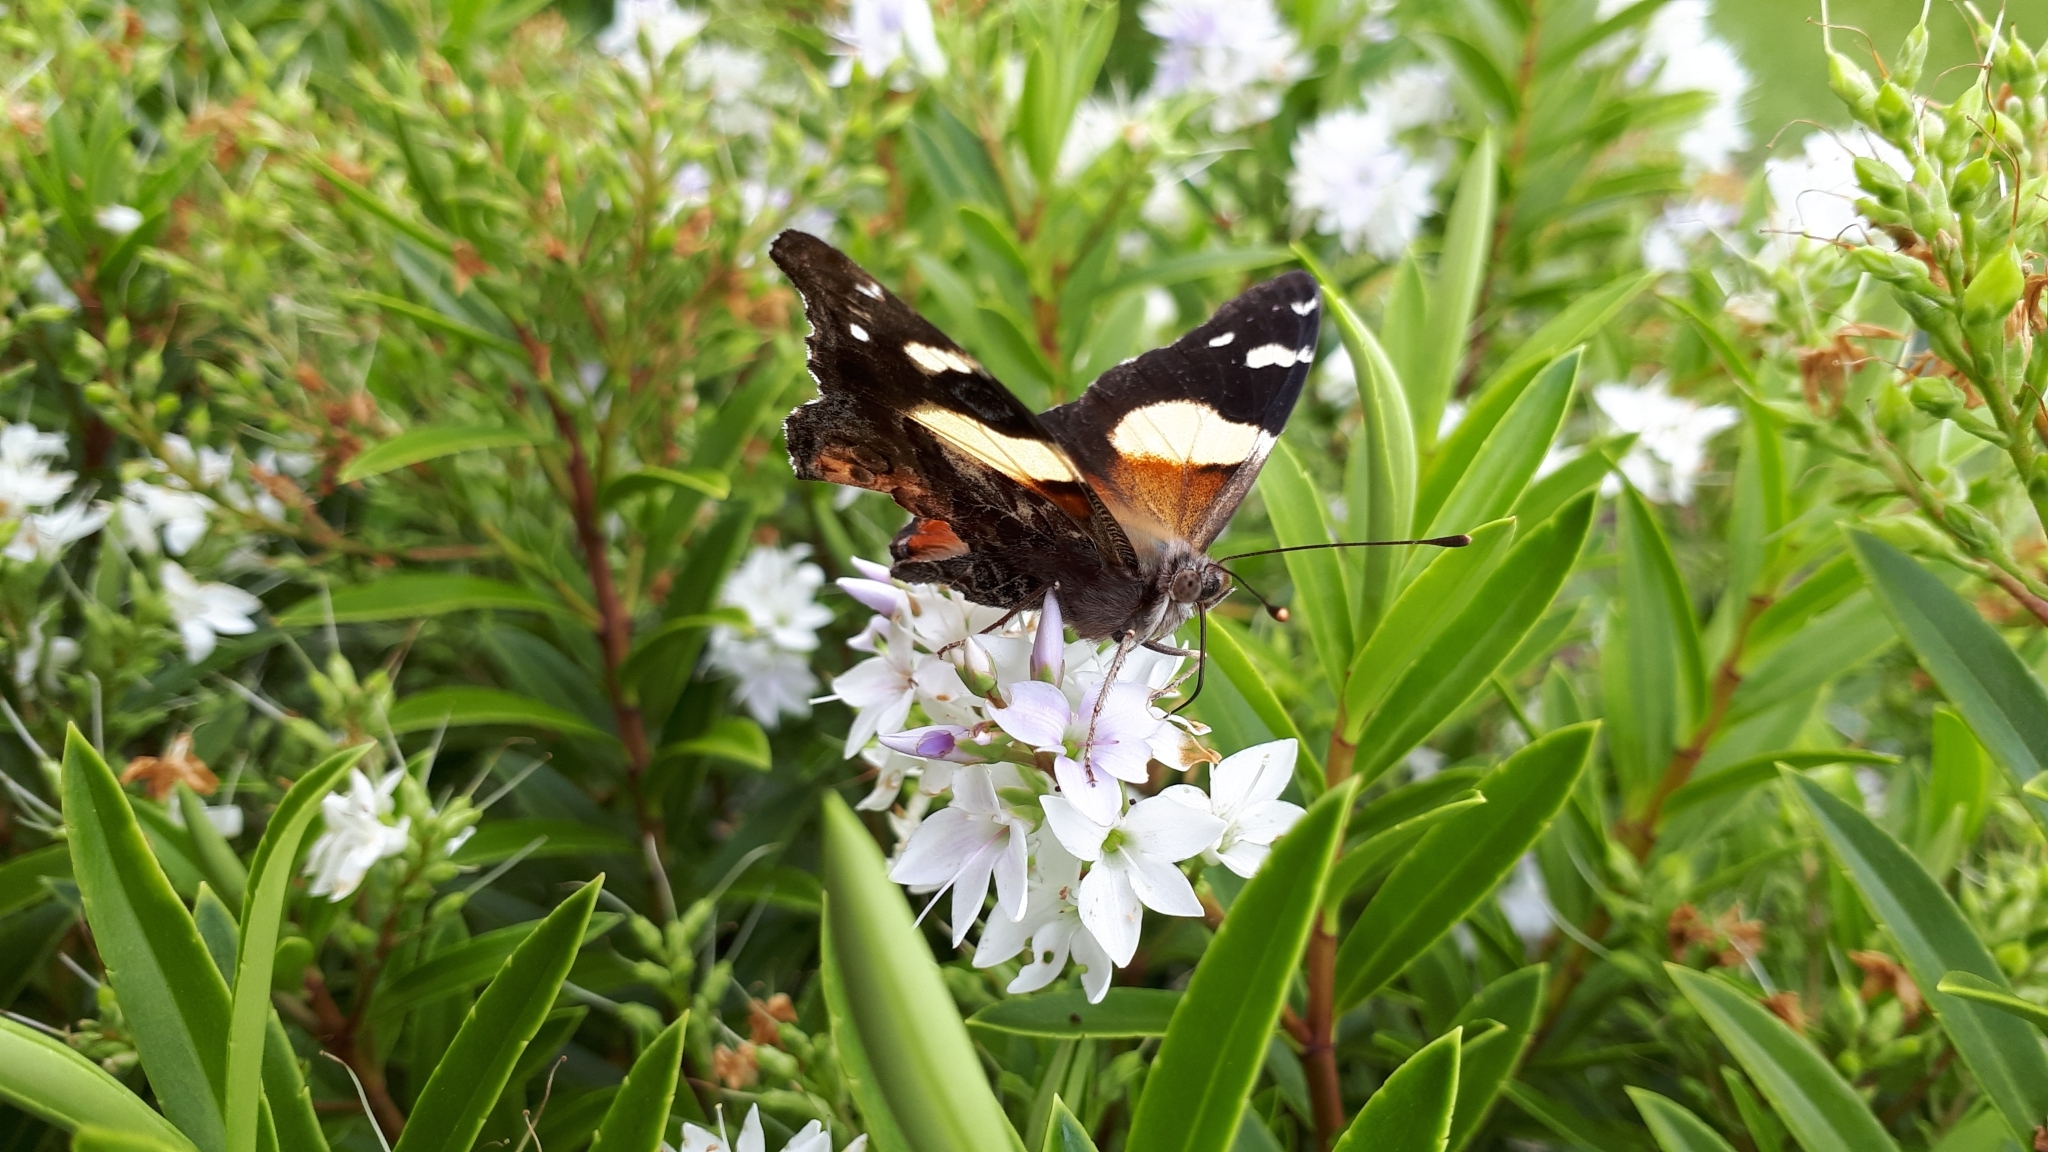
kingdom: Animalia
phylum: Arthropoda
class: Insecta
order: Lepidoptera
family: Nymphalidae
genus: Vanessa
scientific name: Vanessa itea
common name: Yellow admiral
